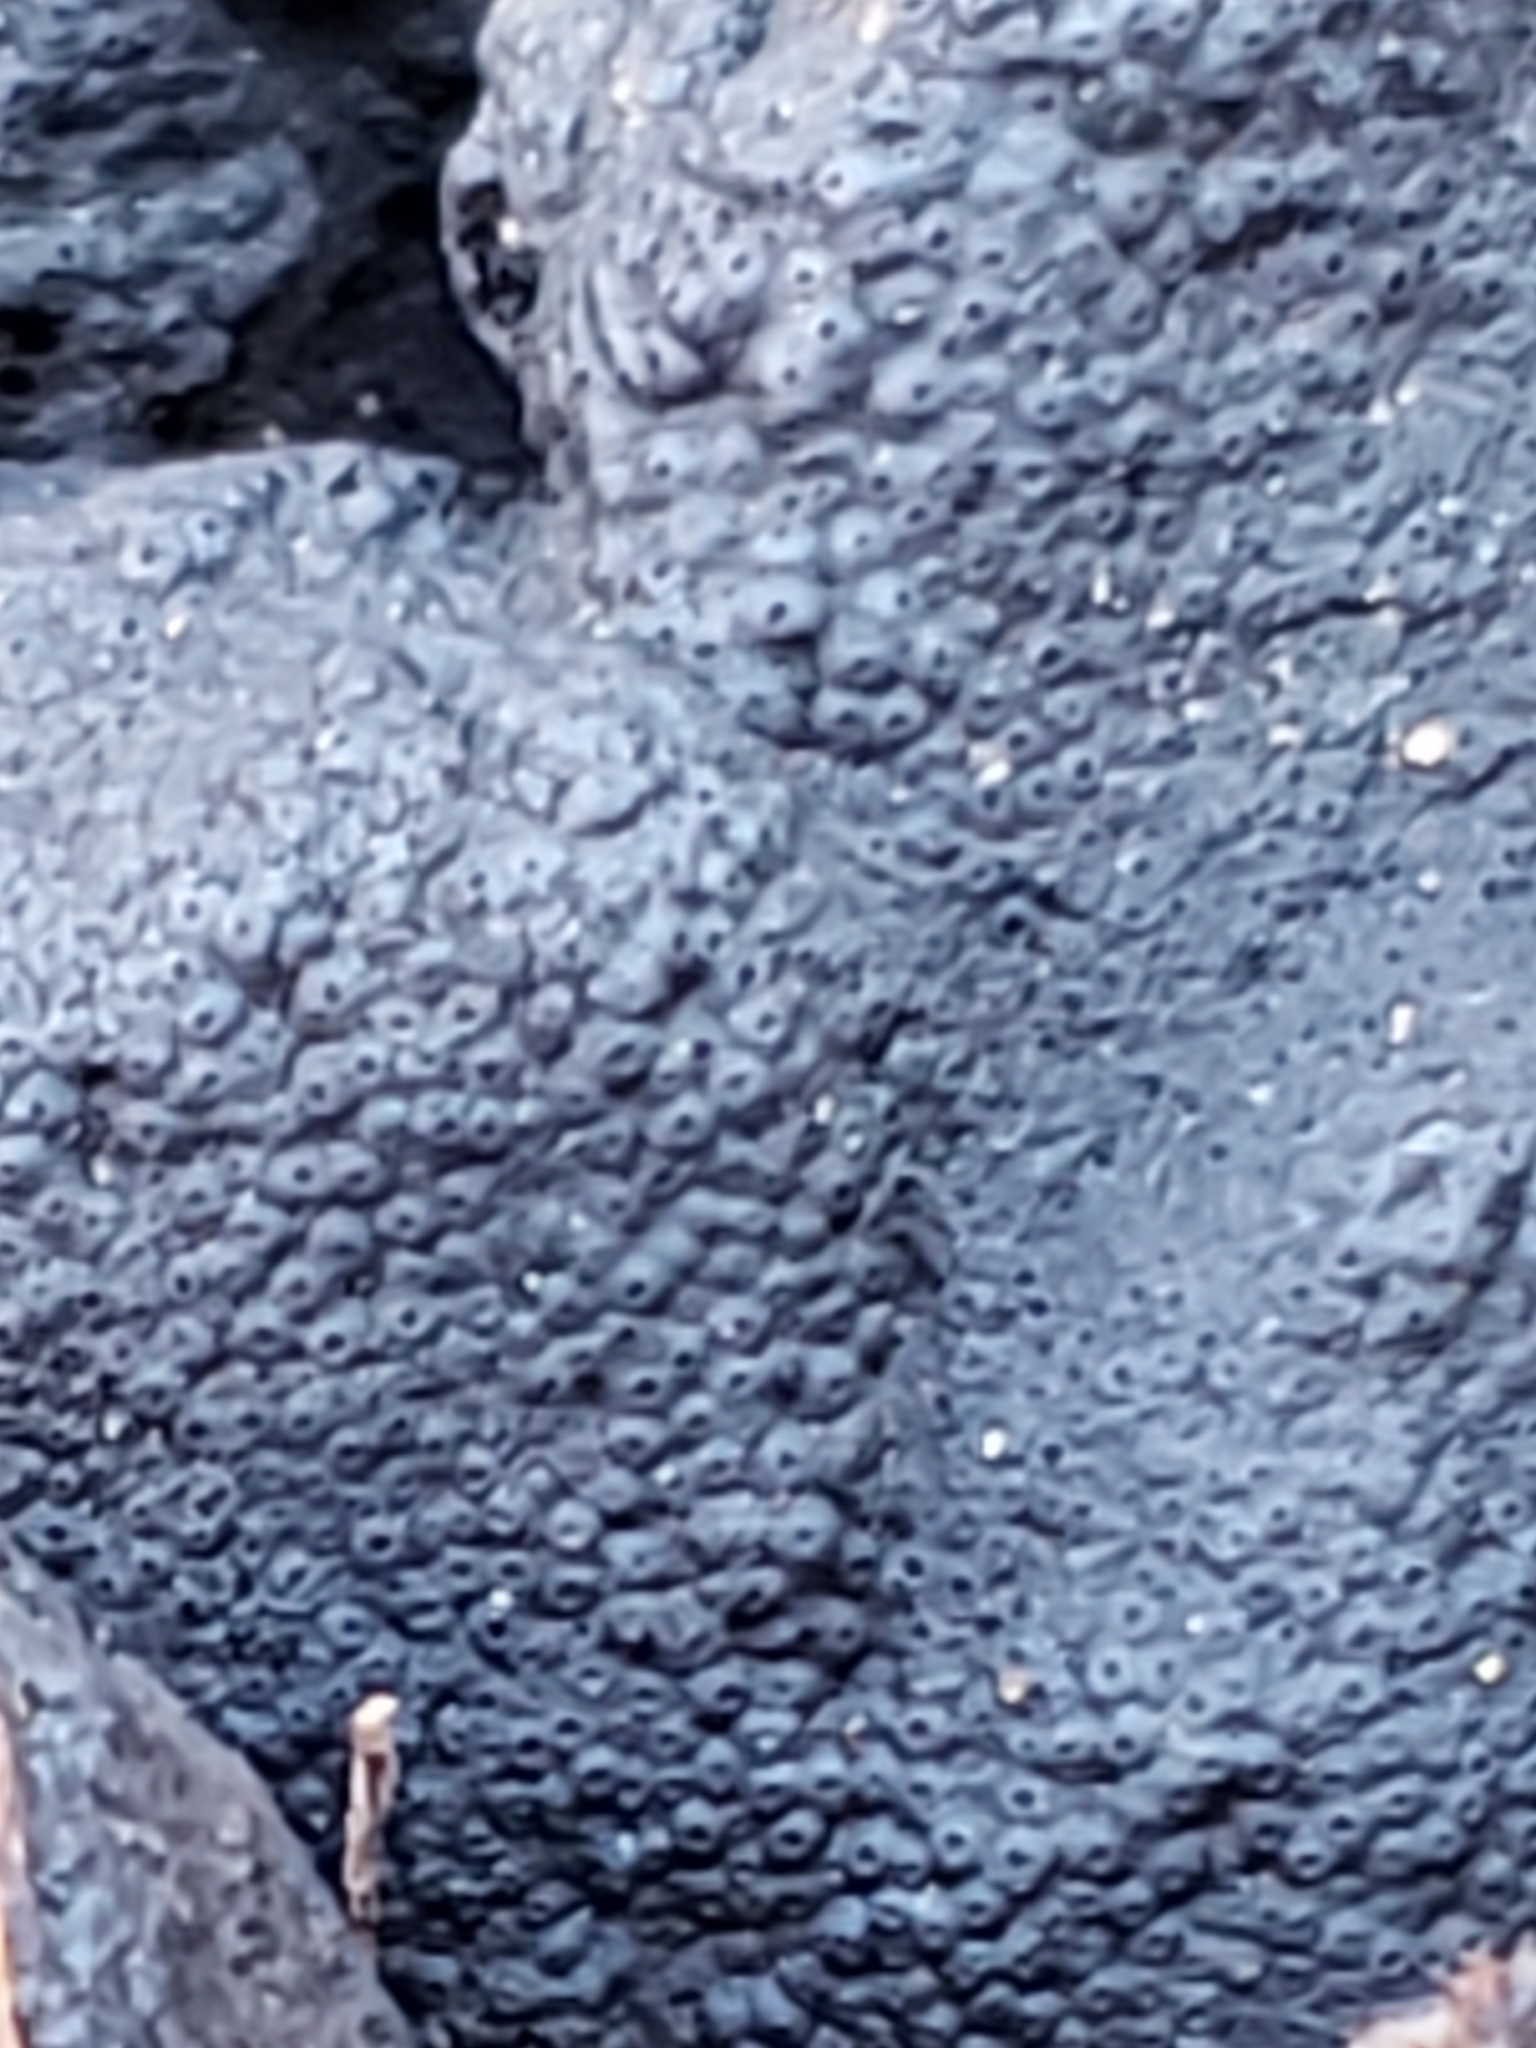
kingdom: Fungi
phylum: Ascomycota
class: Sordariomycetes
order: Xylariales
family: Xylariaceae
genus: Kretzschmaria
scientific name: Kretzschmaria deusta
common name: Brittle cinder
